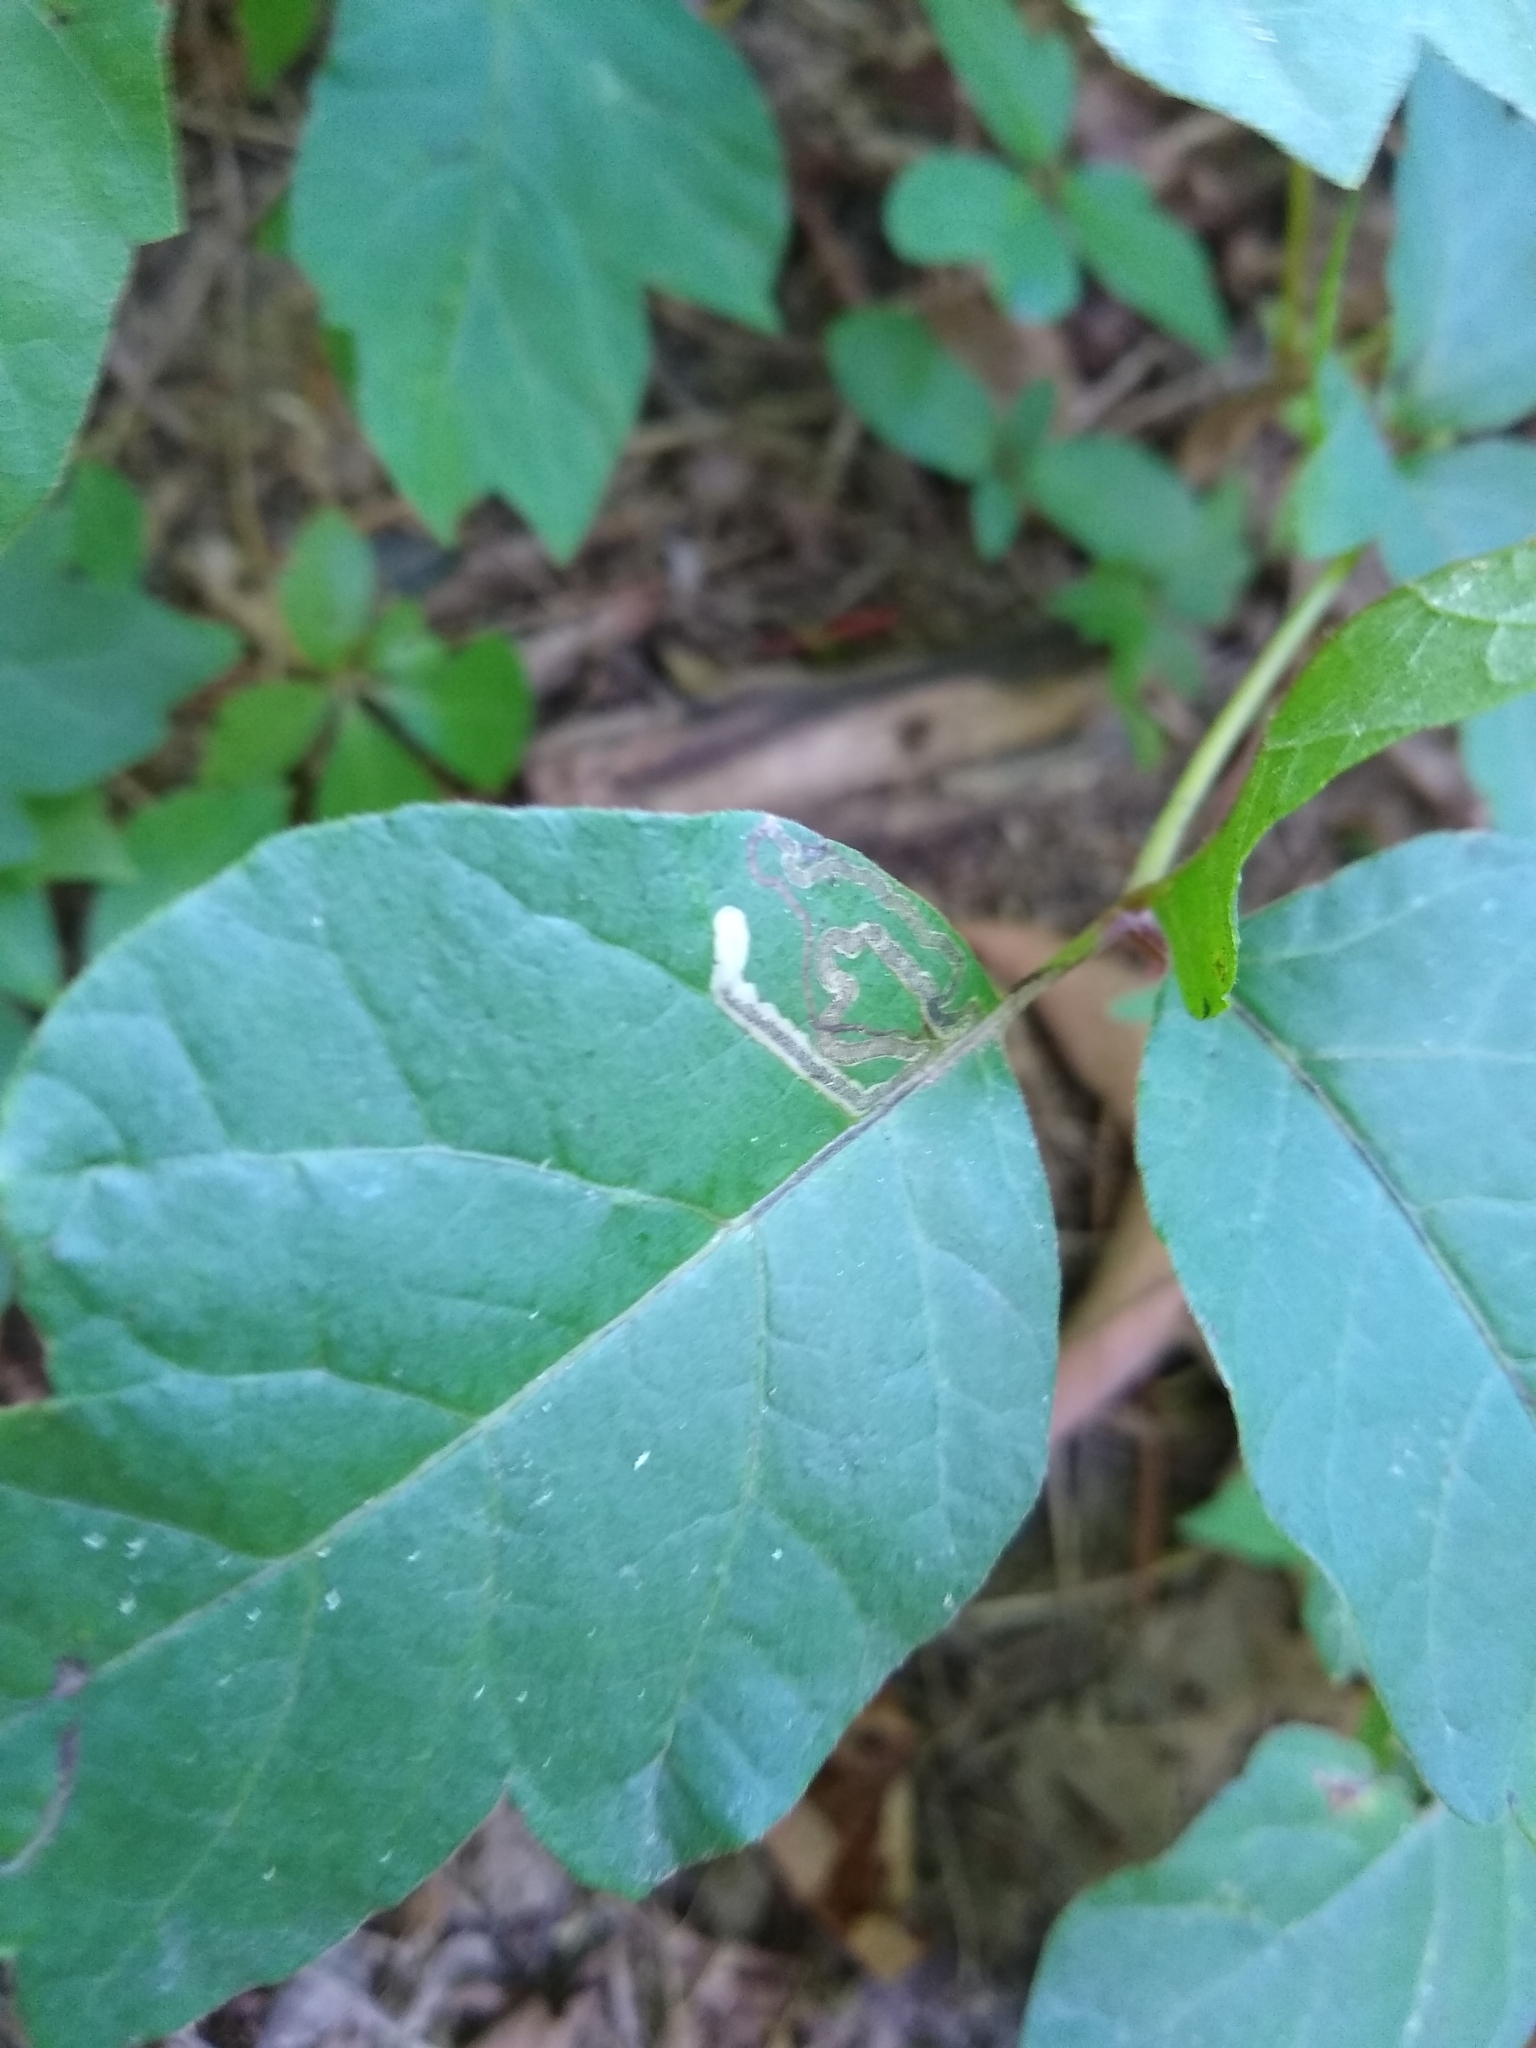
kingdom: Animalia
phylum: Arthropoda
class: Insecta
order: Lepidoptera
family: Nepticulidae
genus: Stigmella
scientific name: Stigmella rhoifoliella
